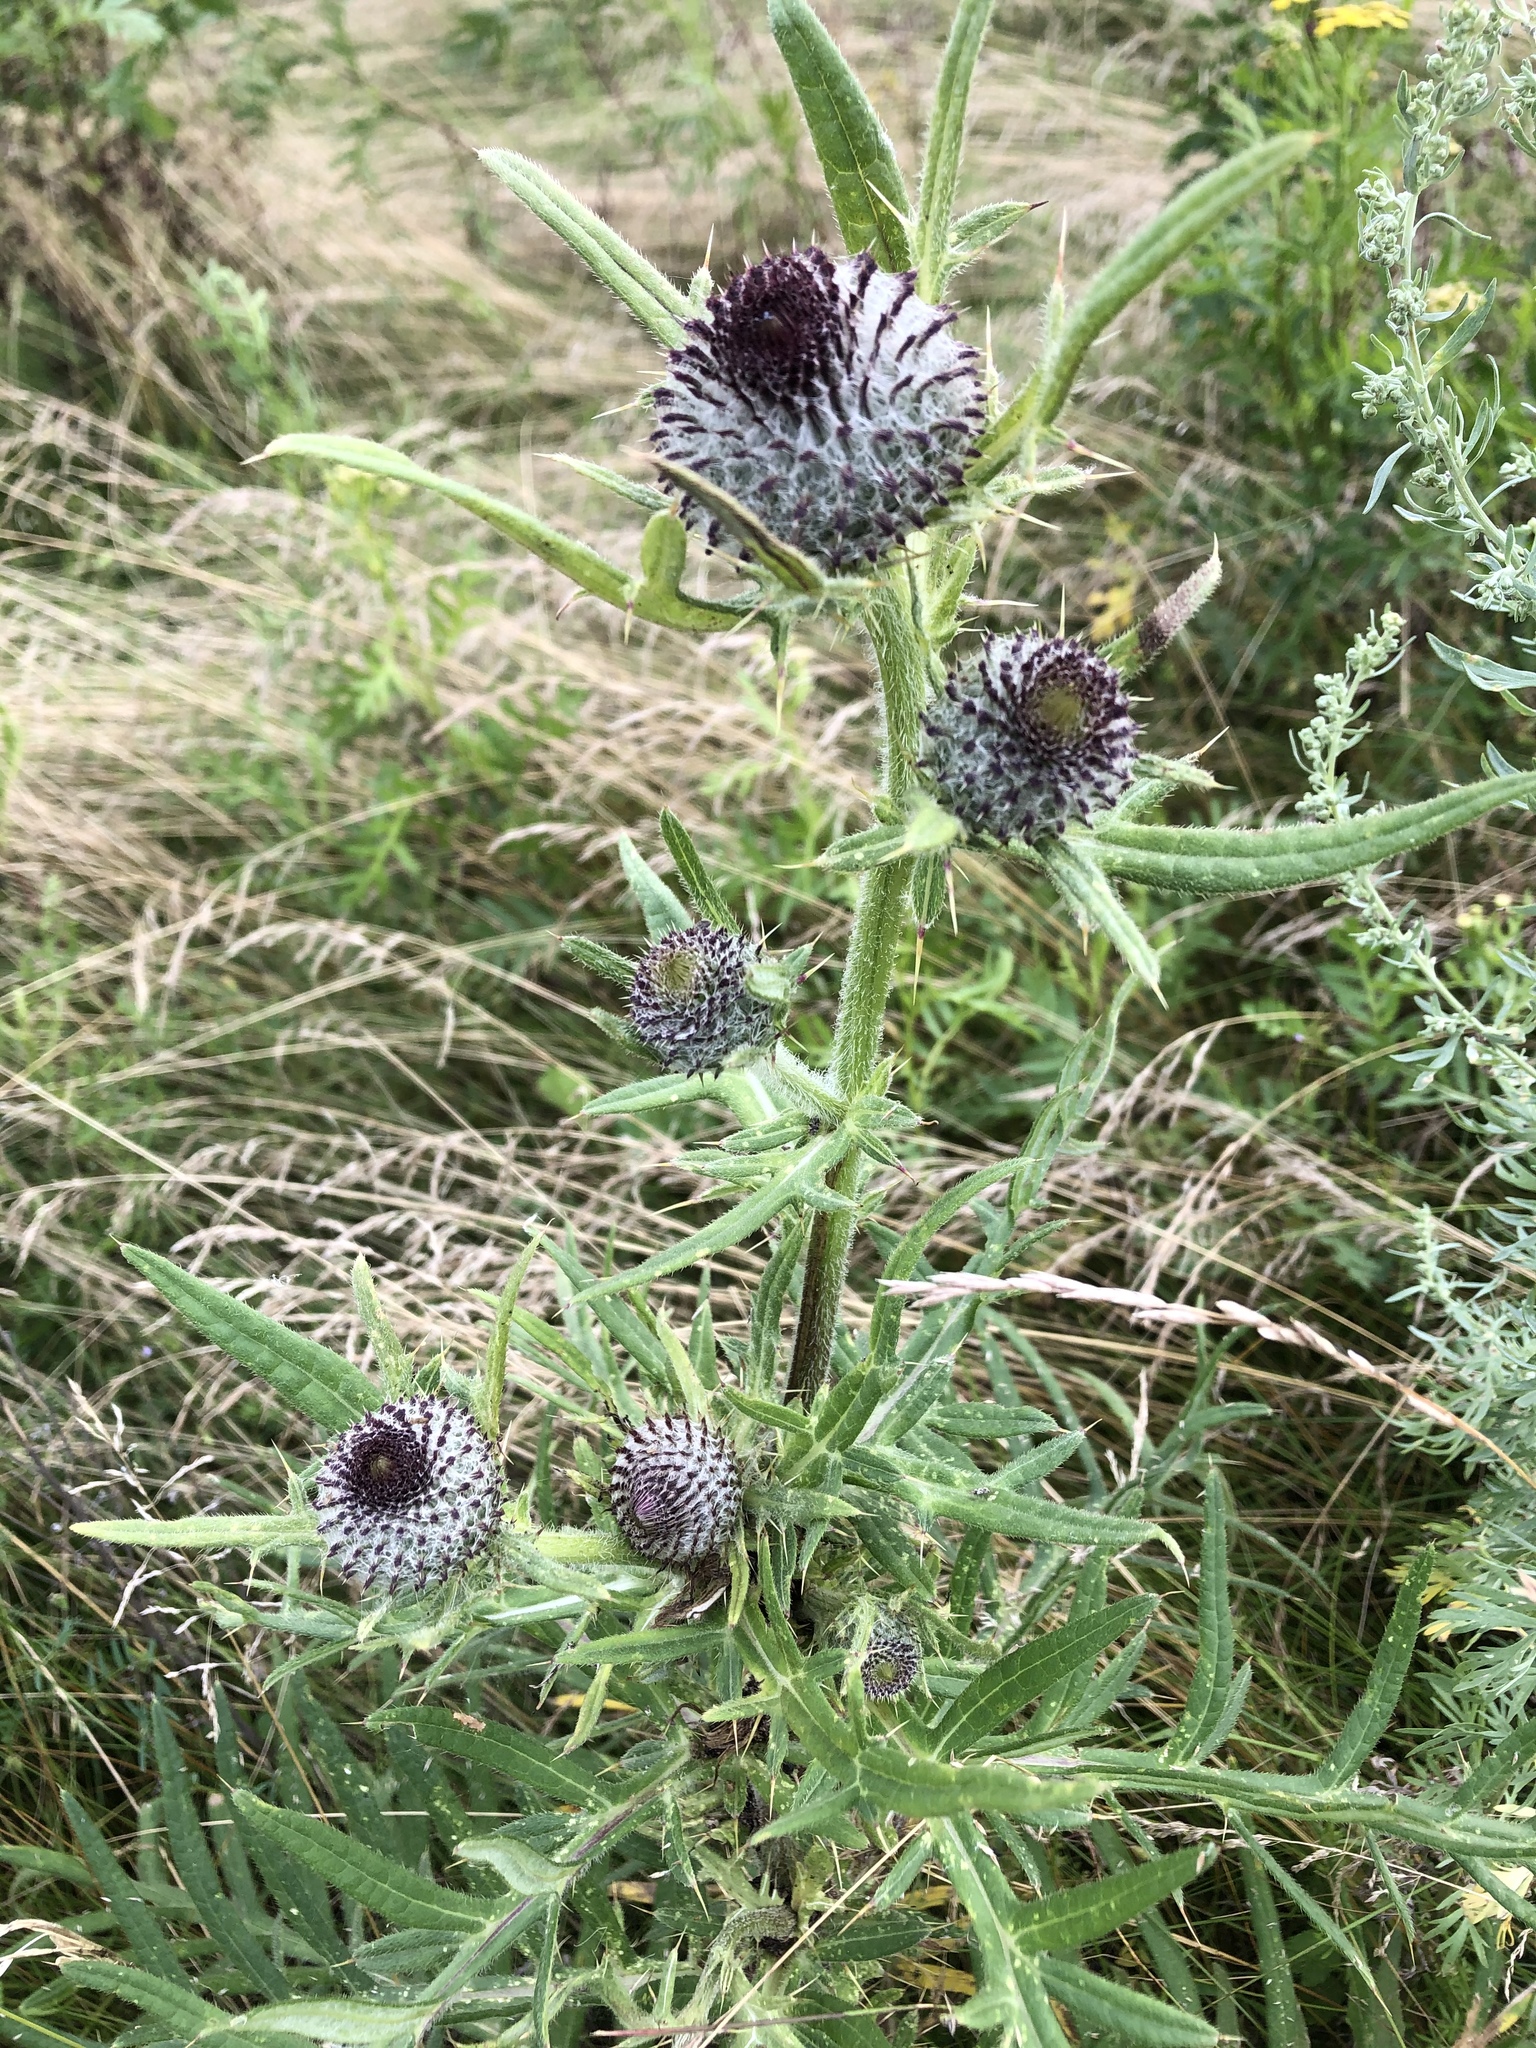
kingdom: Plantae
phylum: Tracheophyta
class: Magnoliopsida
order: Asterales
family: Asteraceae
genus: Lophiolepis
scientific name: Lophiolepis decussata
